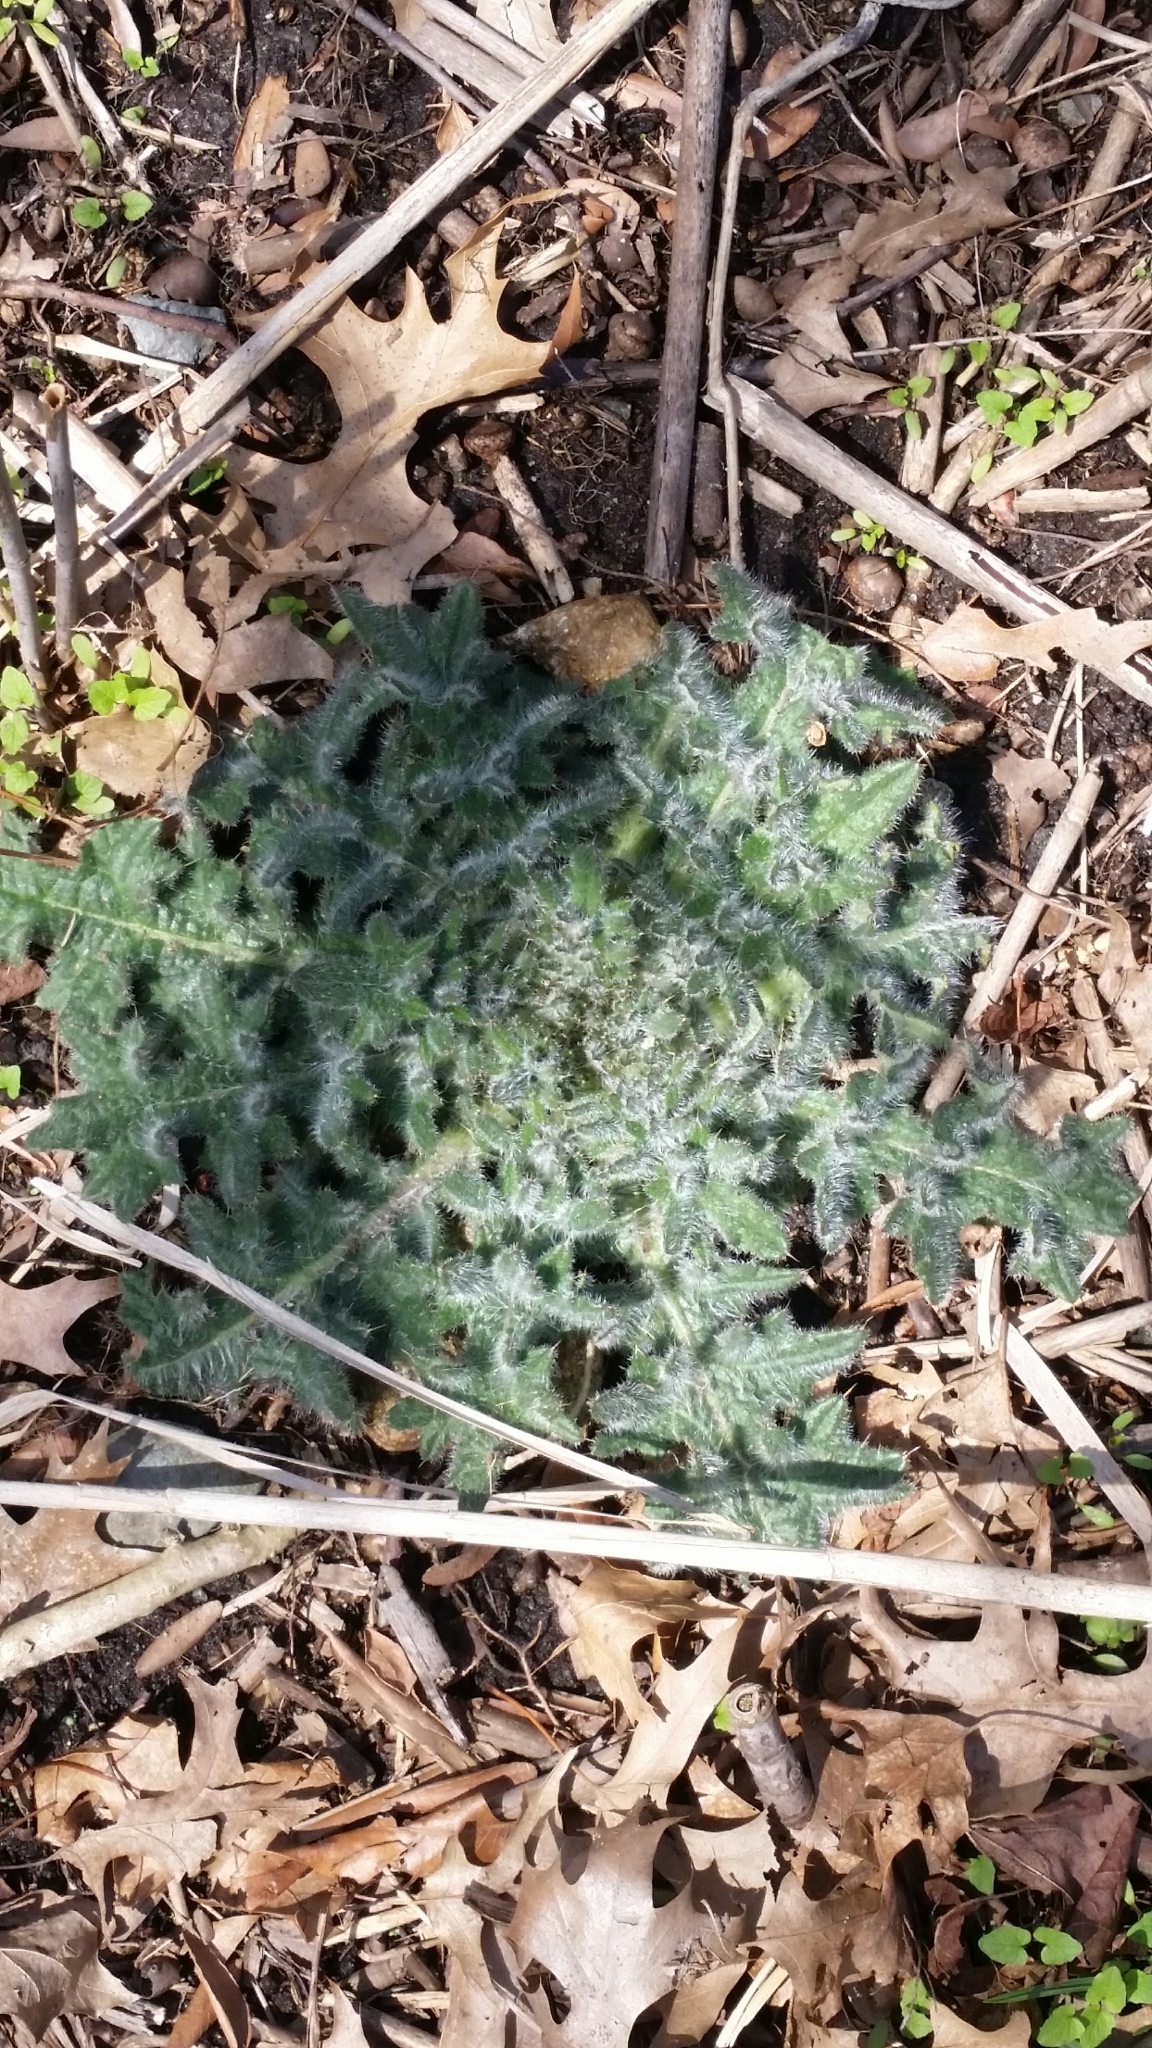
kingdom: Plantae
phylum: Tracheophyta
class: Magnoliopsida
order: Asterales
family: Asteraceae
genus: Cirsium
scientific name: Cirsium vulgare
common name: Bull thistle
